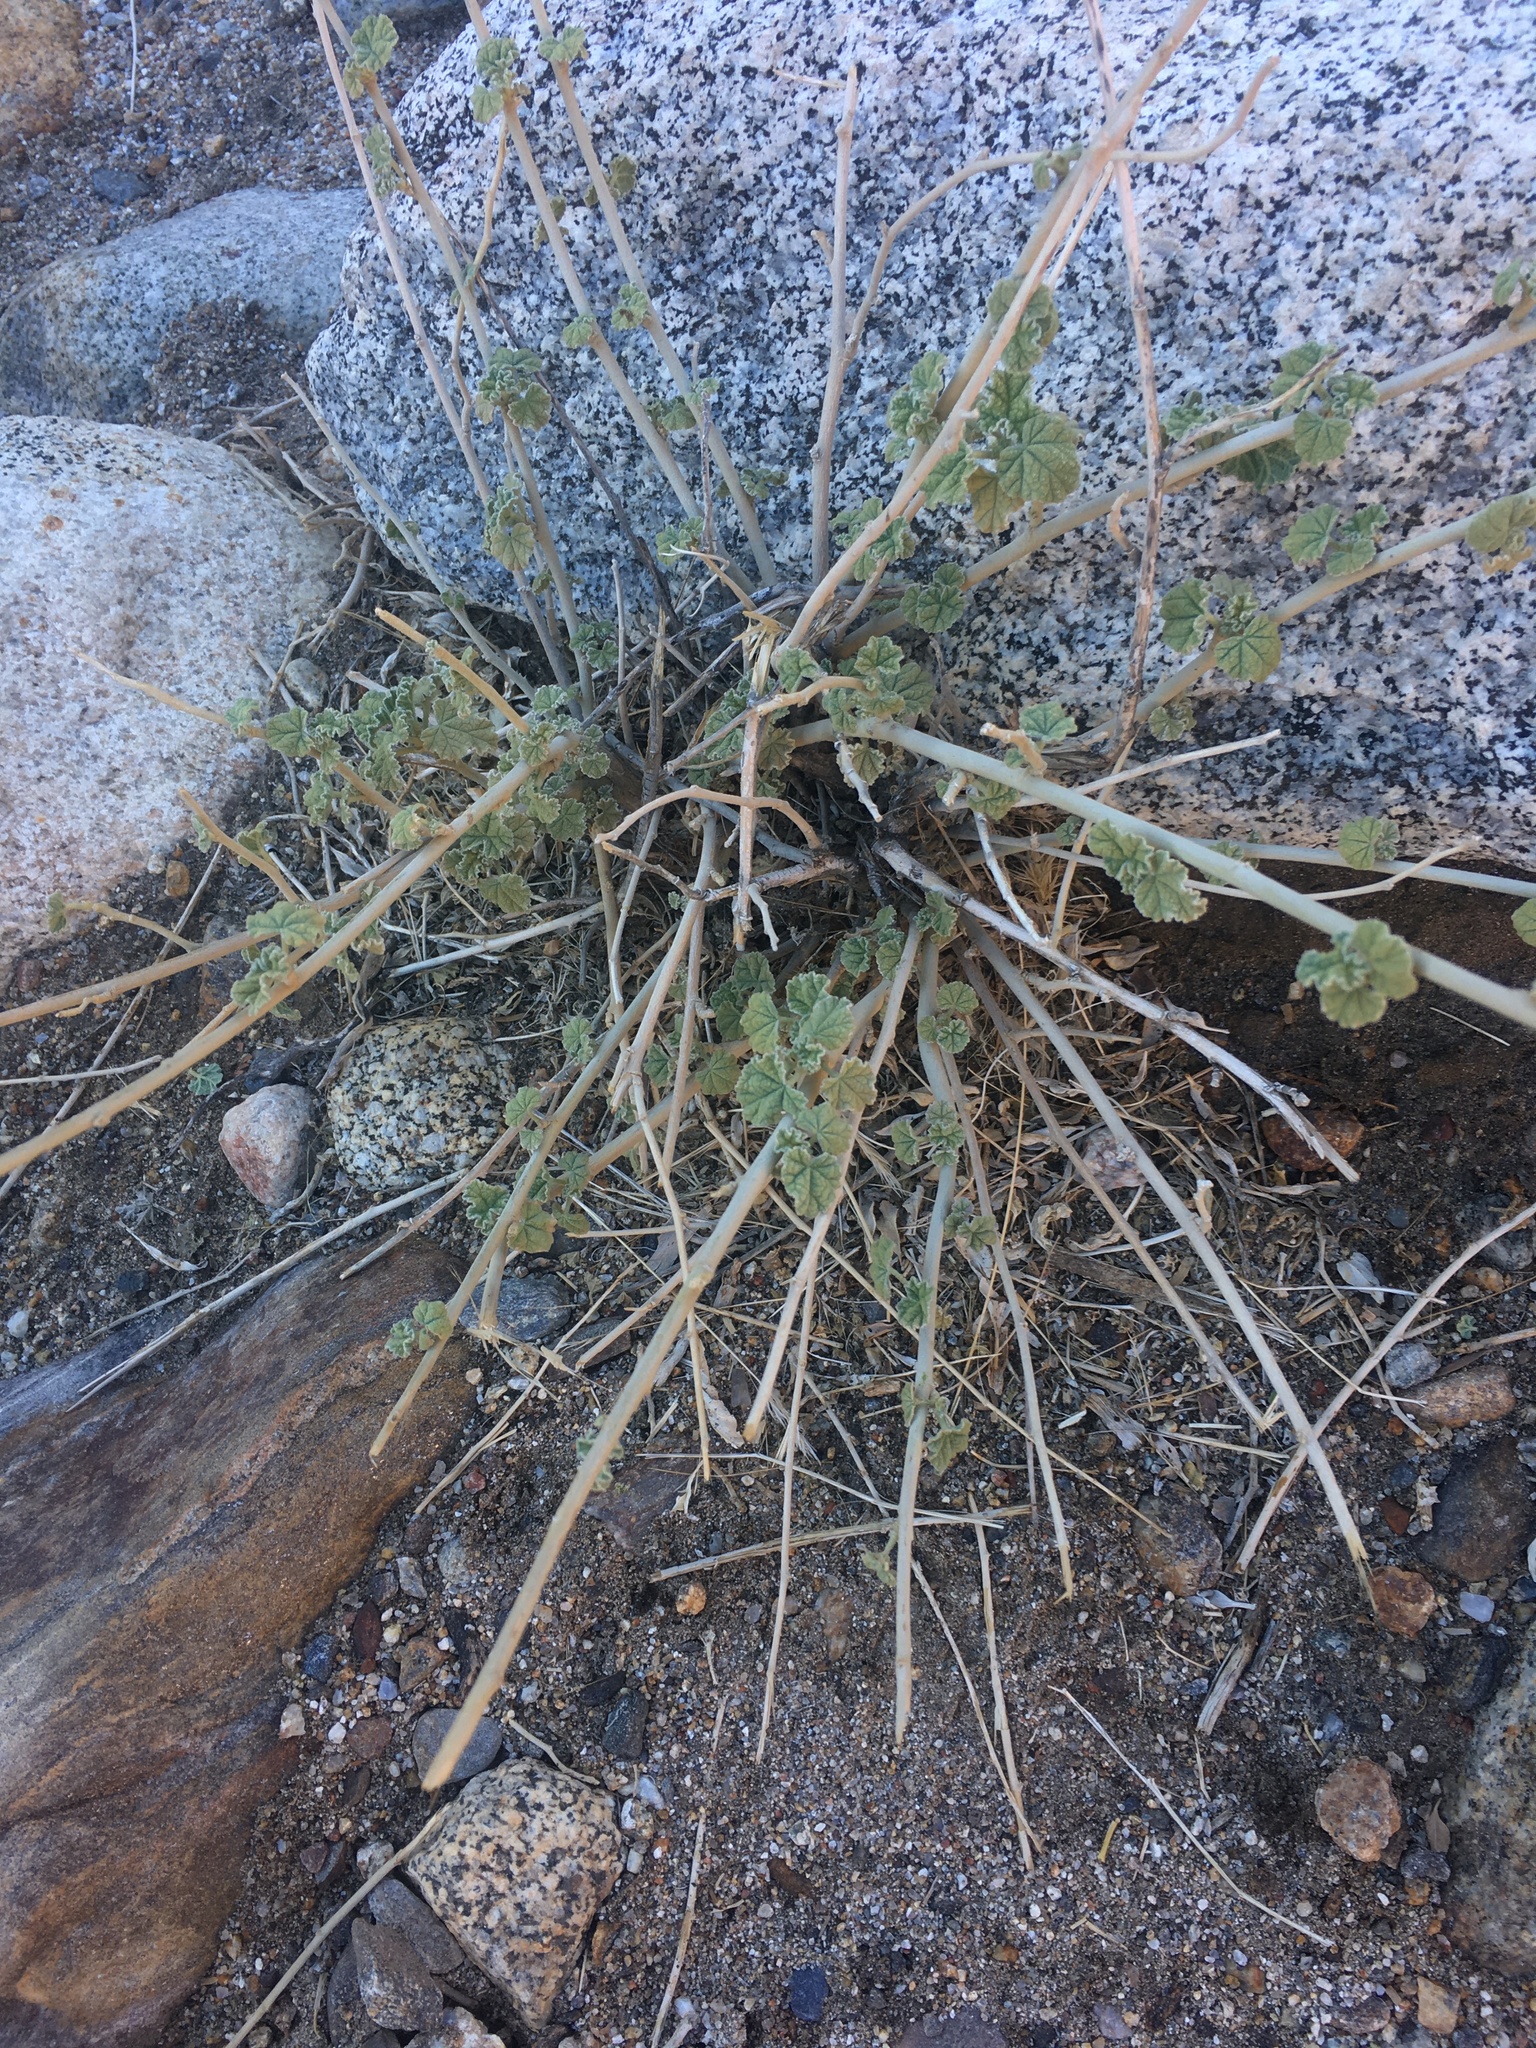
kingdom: Plantae
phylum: Tracheophyta
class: Magnoliopsida
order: Malvales
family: Malvaceae
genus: Sphaeralcea
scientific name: Sphaeralcea ambigua
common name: Apricot globe-mallow
